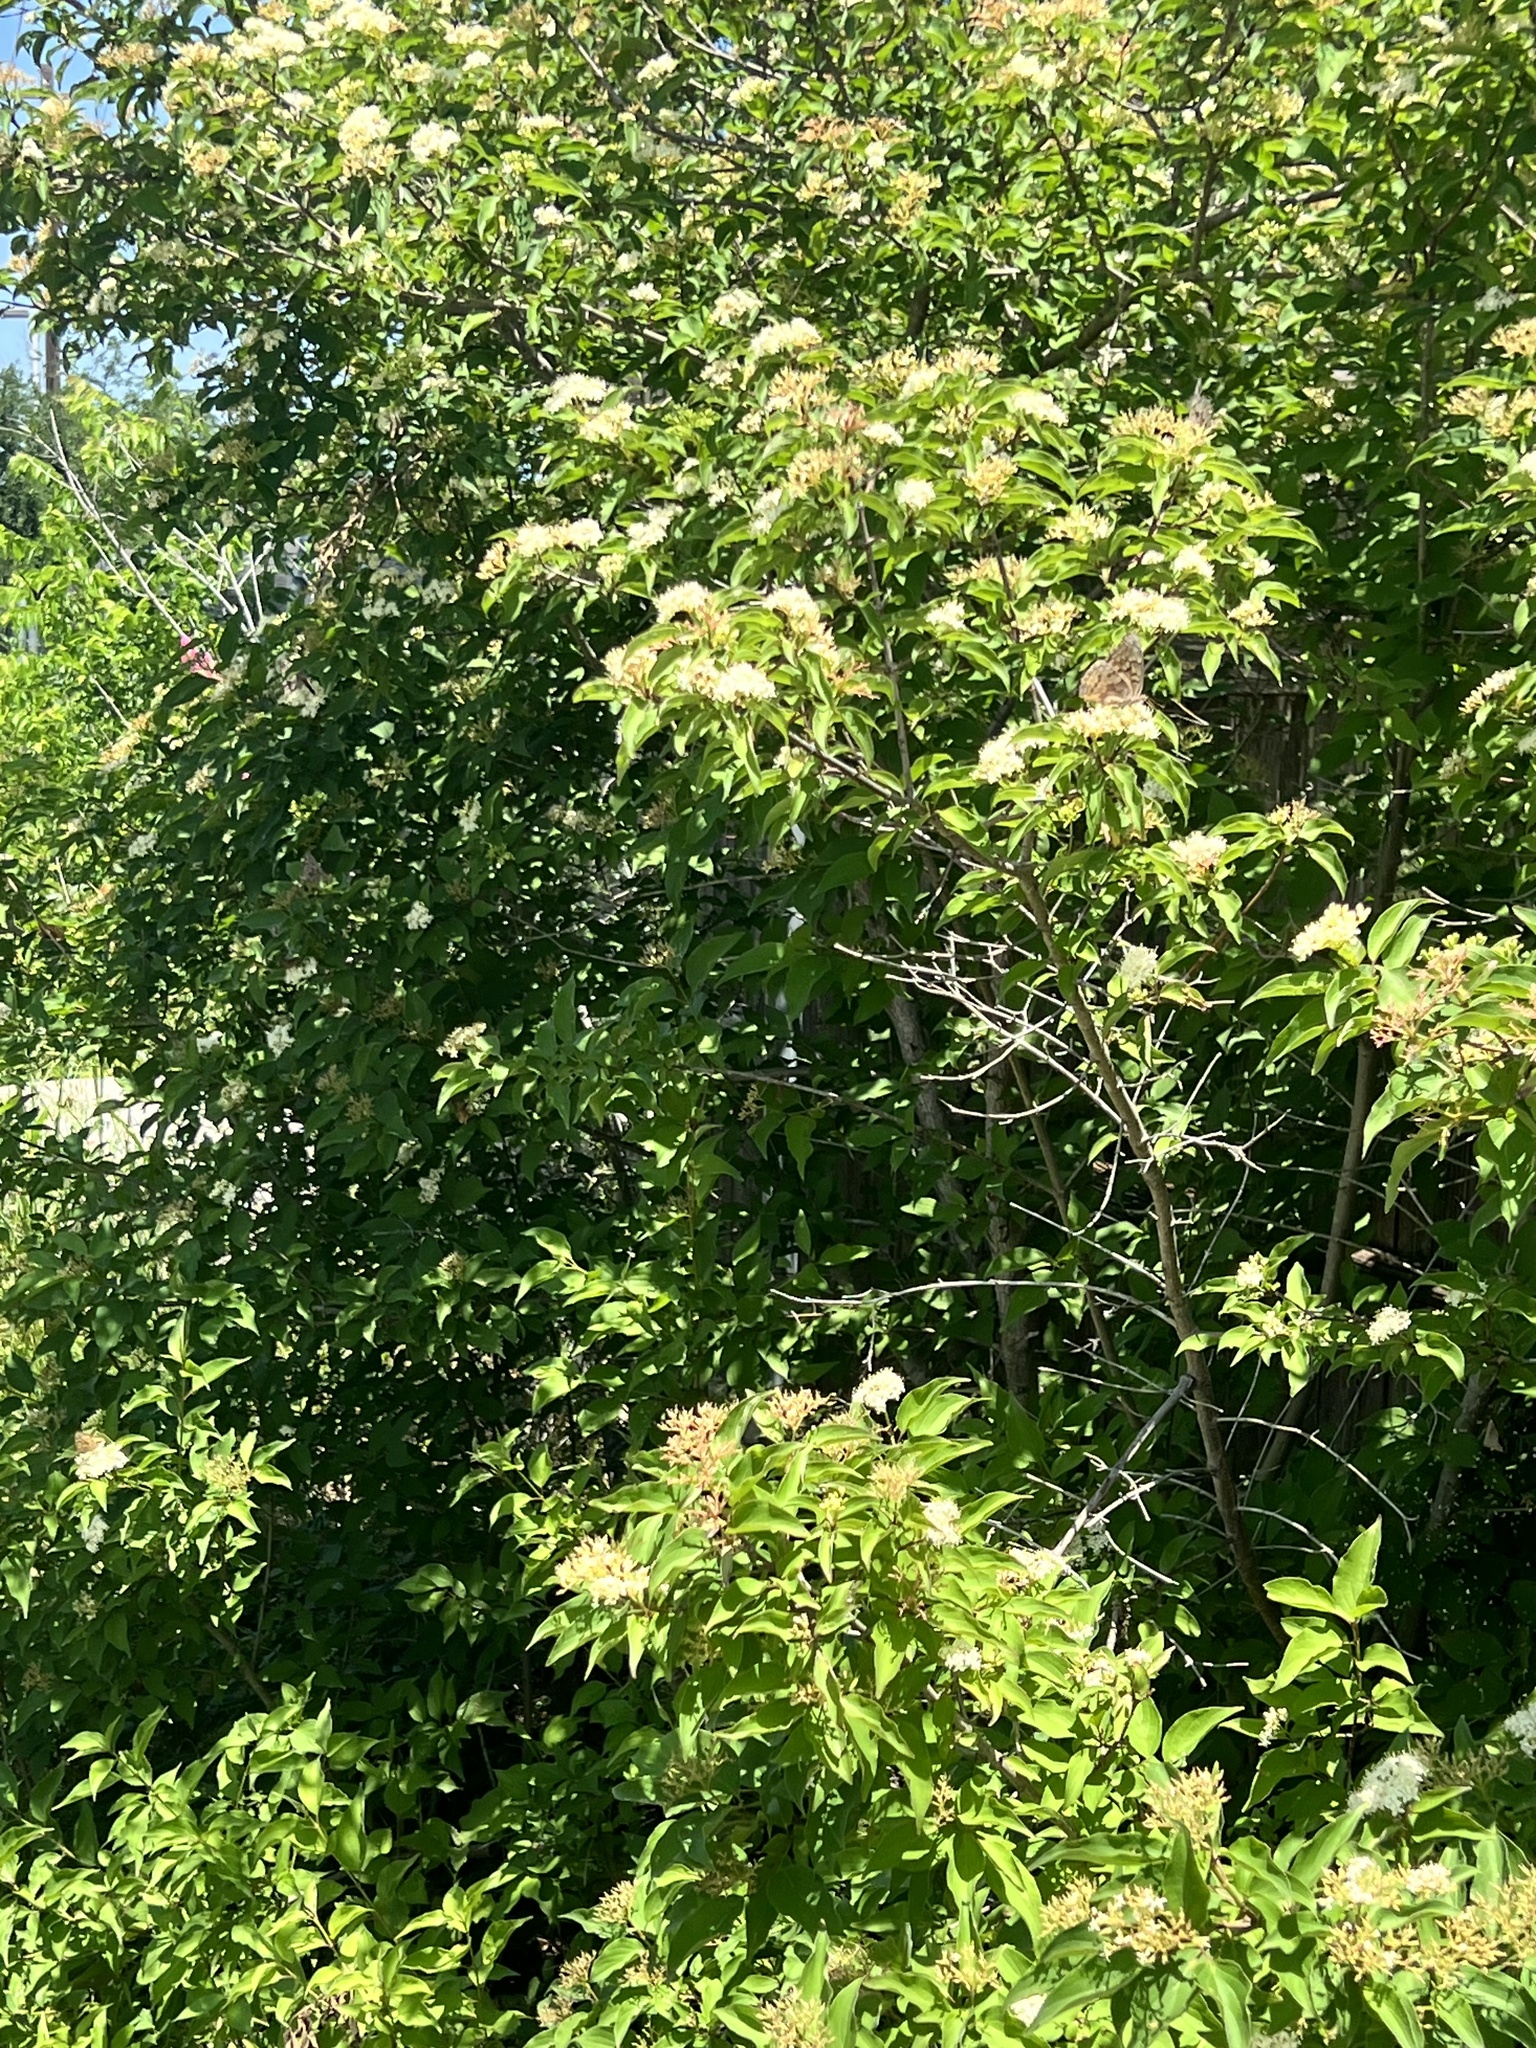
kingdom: Animalia
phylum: Arthropoda
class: Insecta
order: Lepidoptera
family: Nymphalidae
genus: Asterocampa
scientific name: Asterocampa celtis
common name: Hackberry emperor
